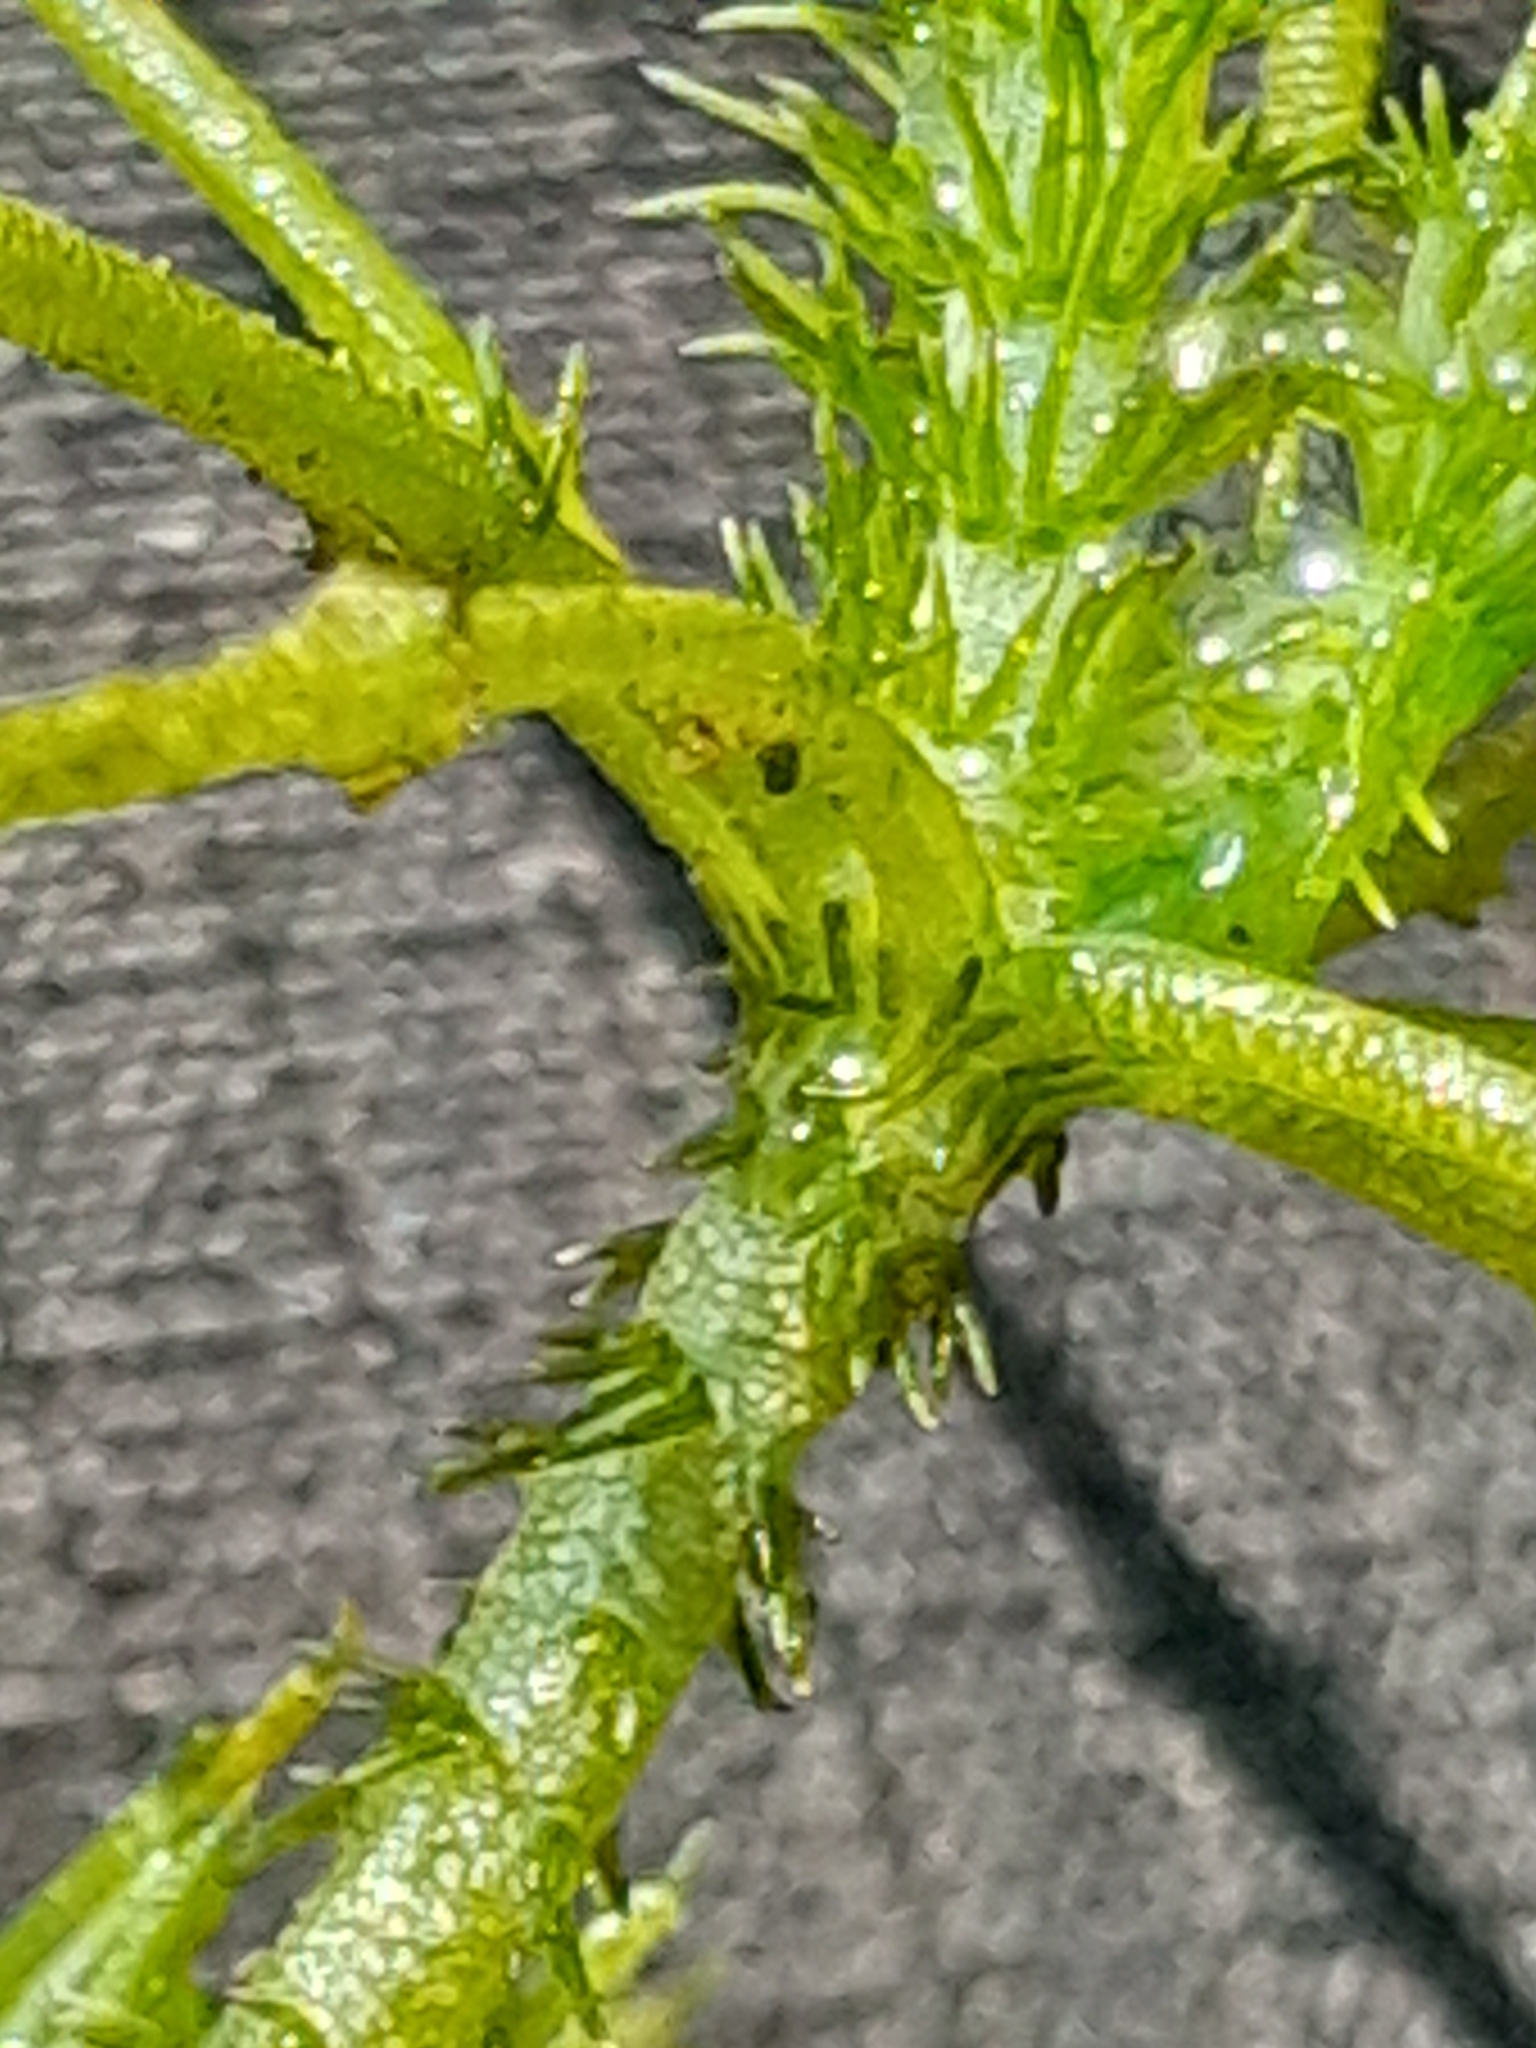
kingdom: Plantae
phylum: Charophyta
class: Charophyceae
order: Charales
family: Characeae
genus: Chara
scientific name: Chara aculeolata
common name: Hedgehog stonewort
